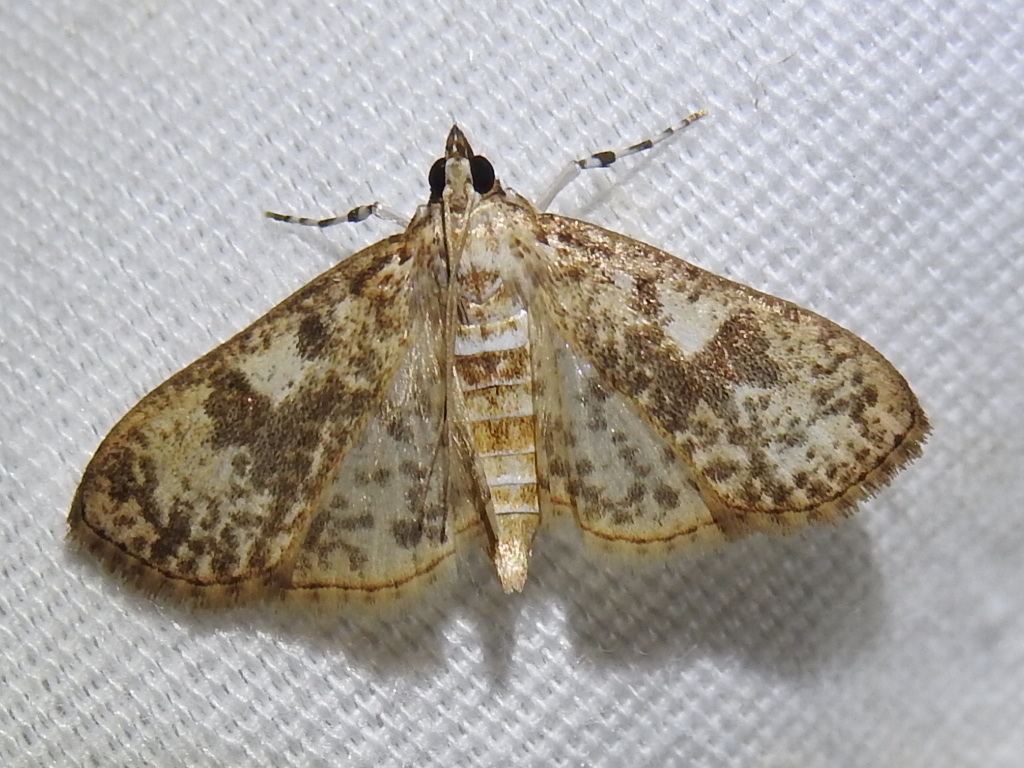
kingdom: Animalia
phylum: Arthropoda
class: Insecta
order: Lepidoptera
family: Crambidae
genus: Palpita
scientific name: Palpita magniferalis
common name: Splendid palpita moth
